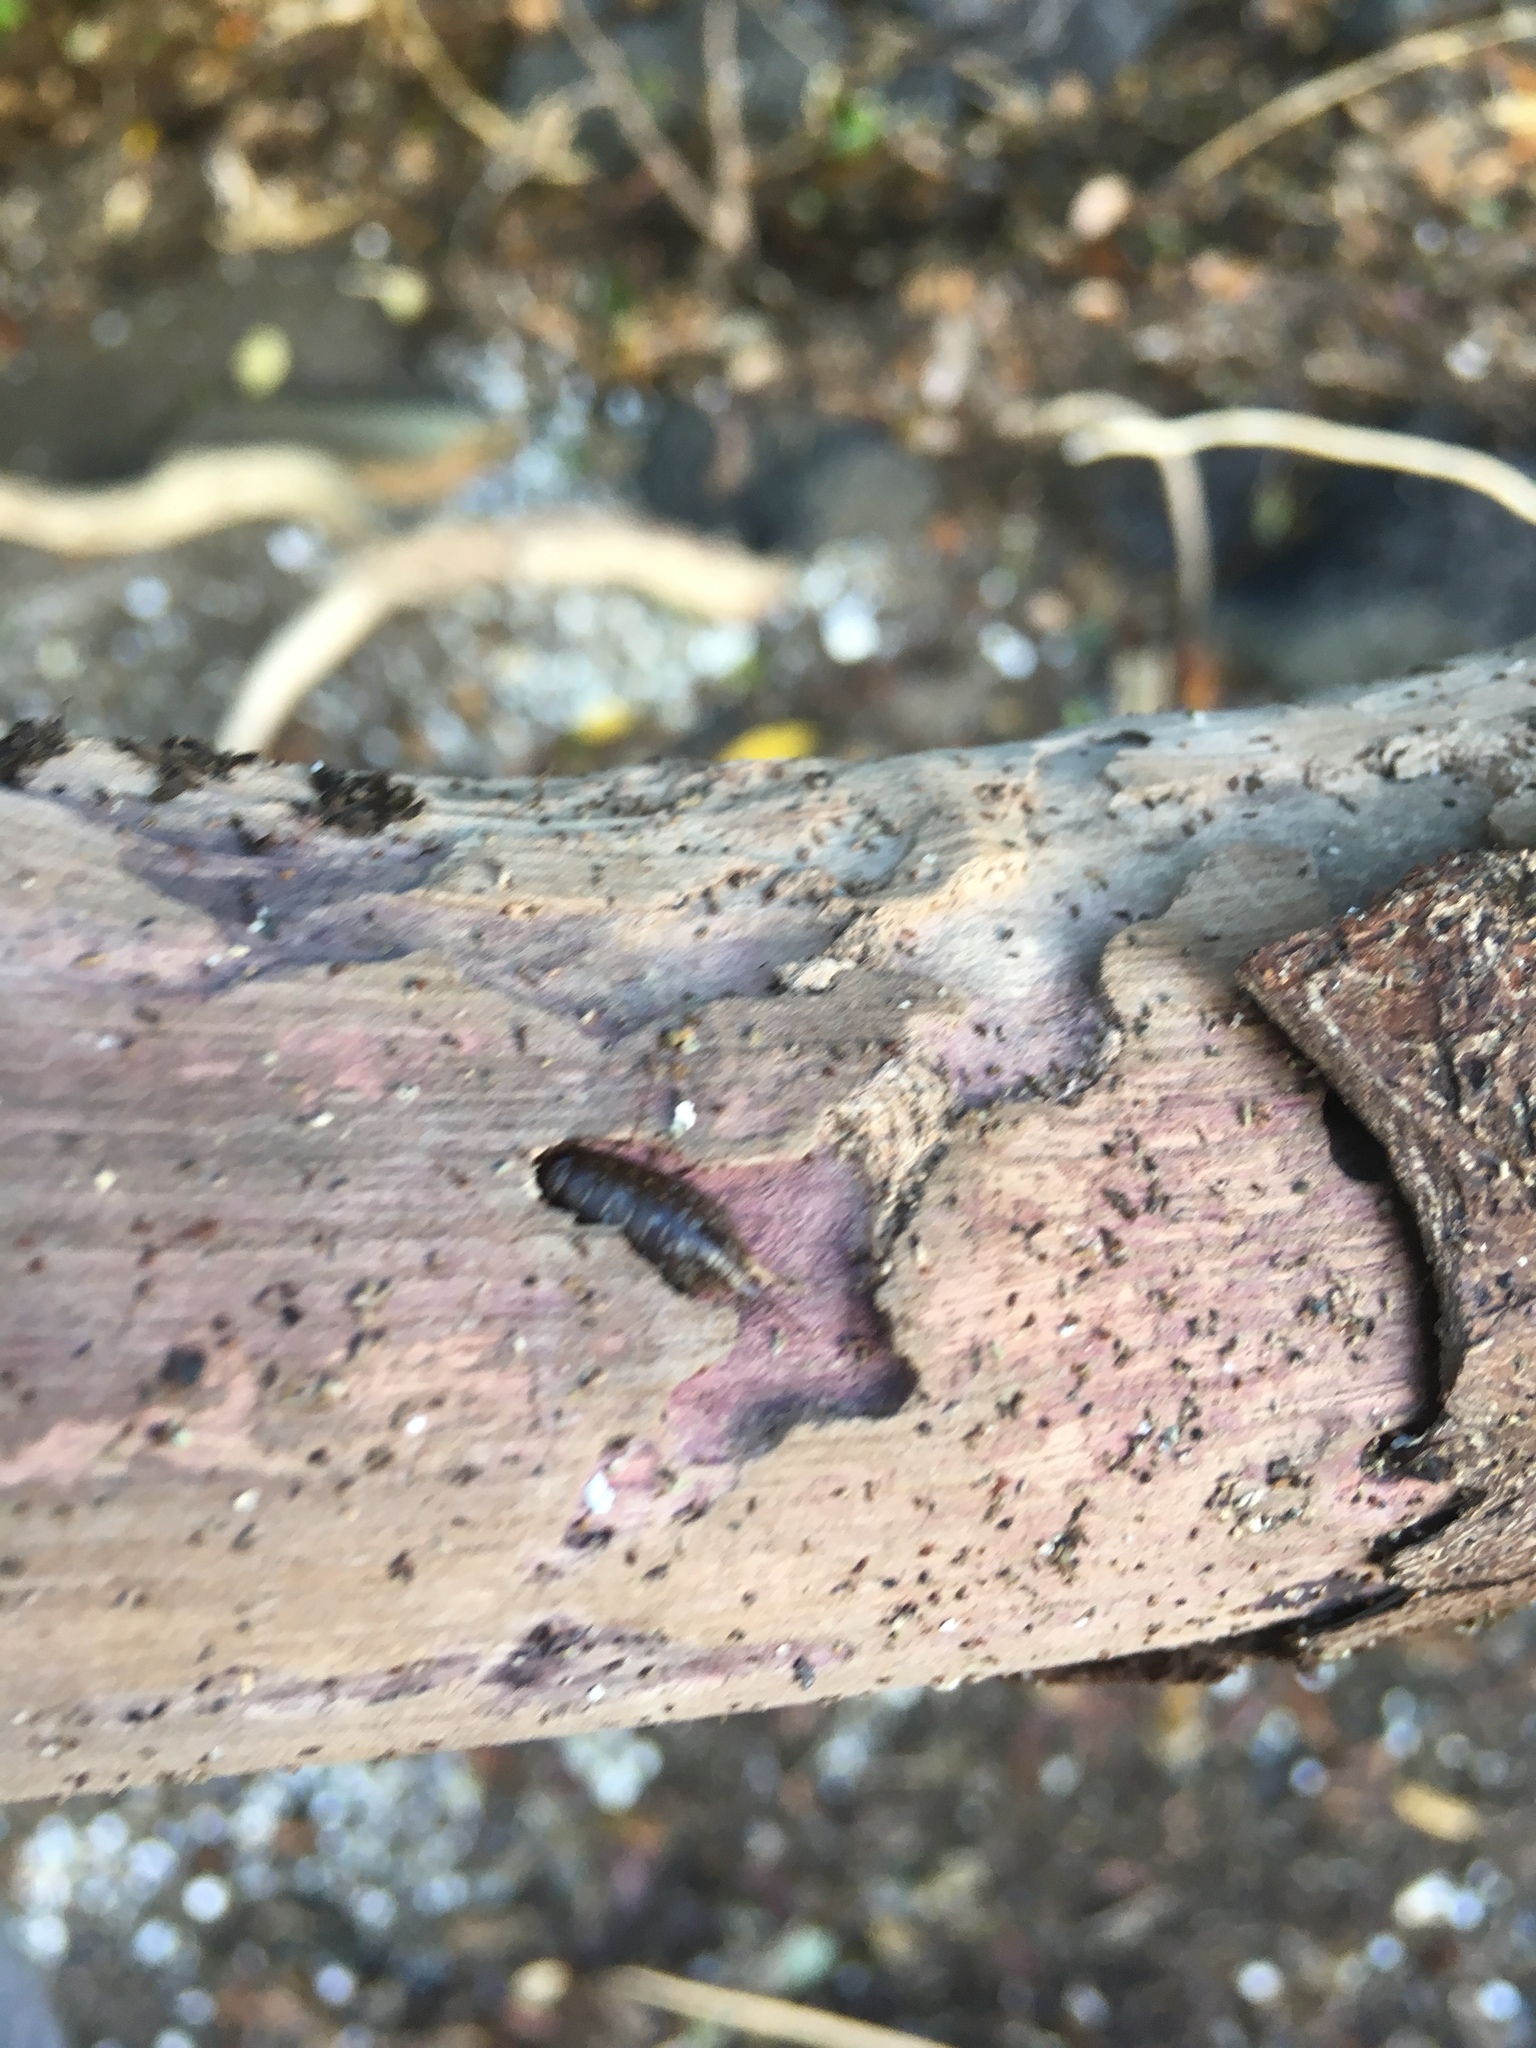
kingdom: Animalia
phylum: Arthropoda
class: Malacostraca
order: Isopoda
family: Ligiidae
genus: Ligia
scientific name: Ligia novizealandiae
